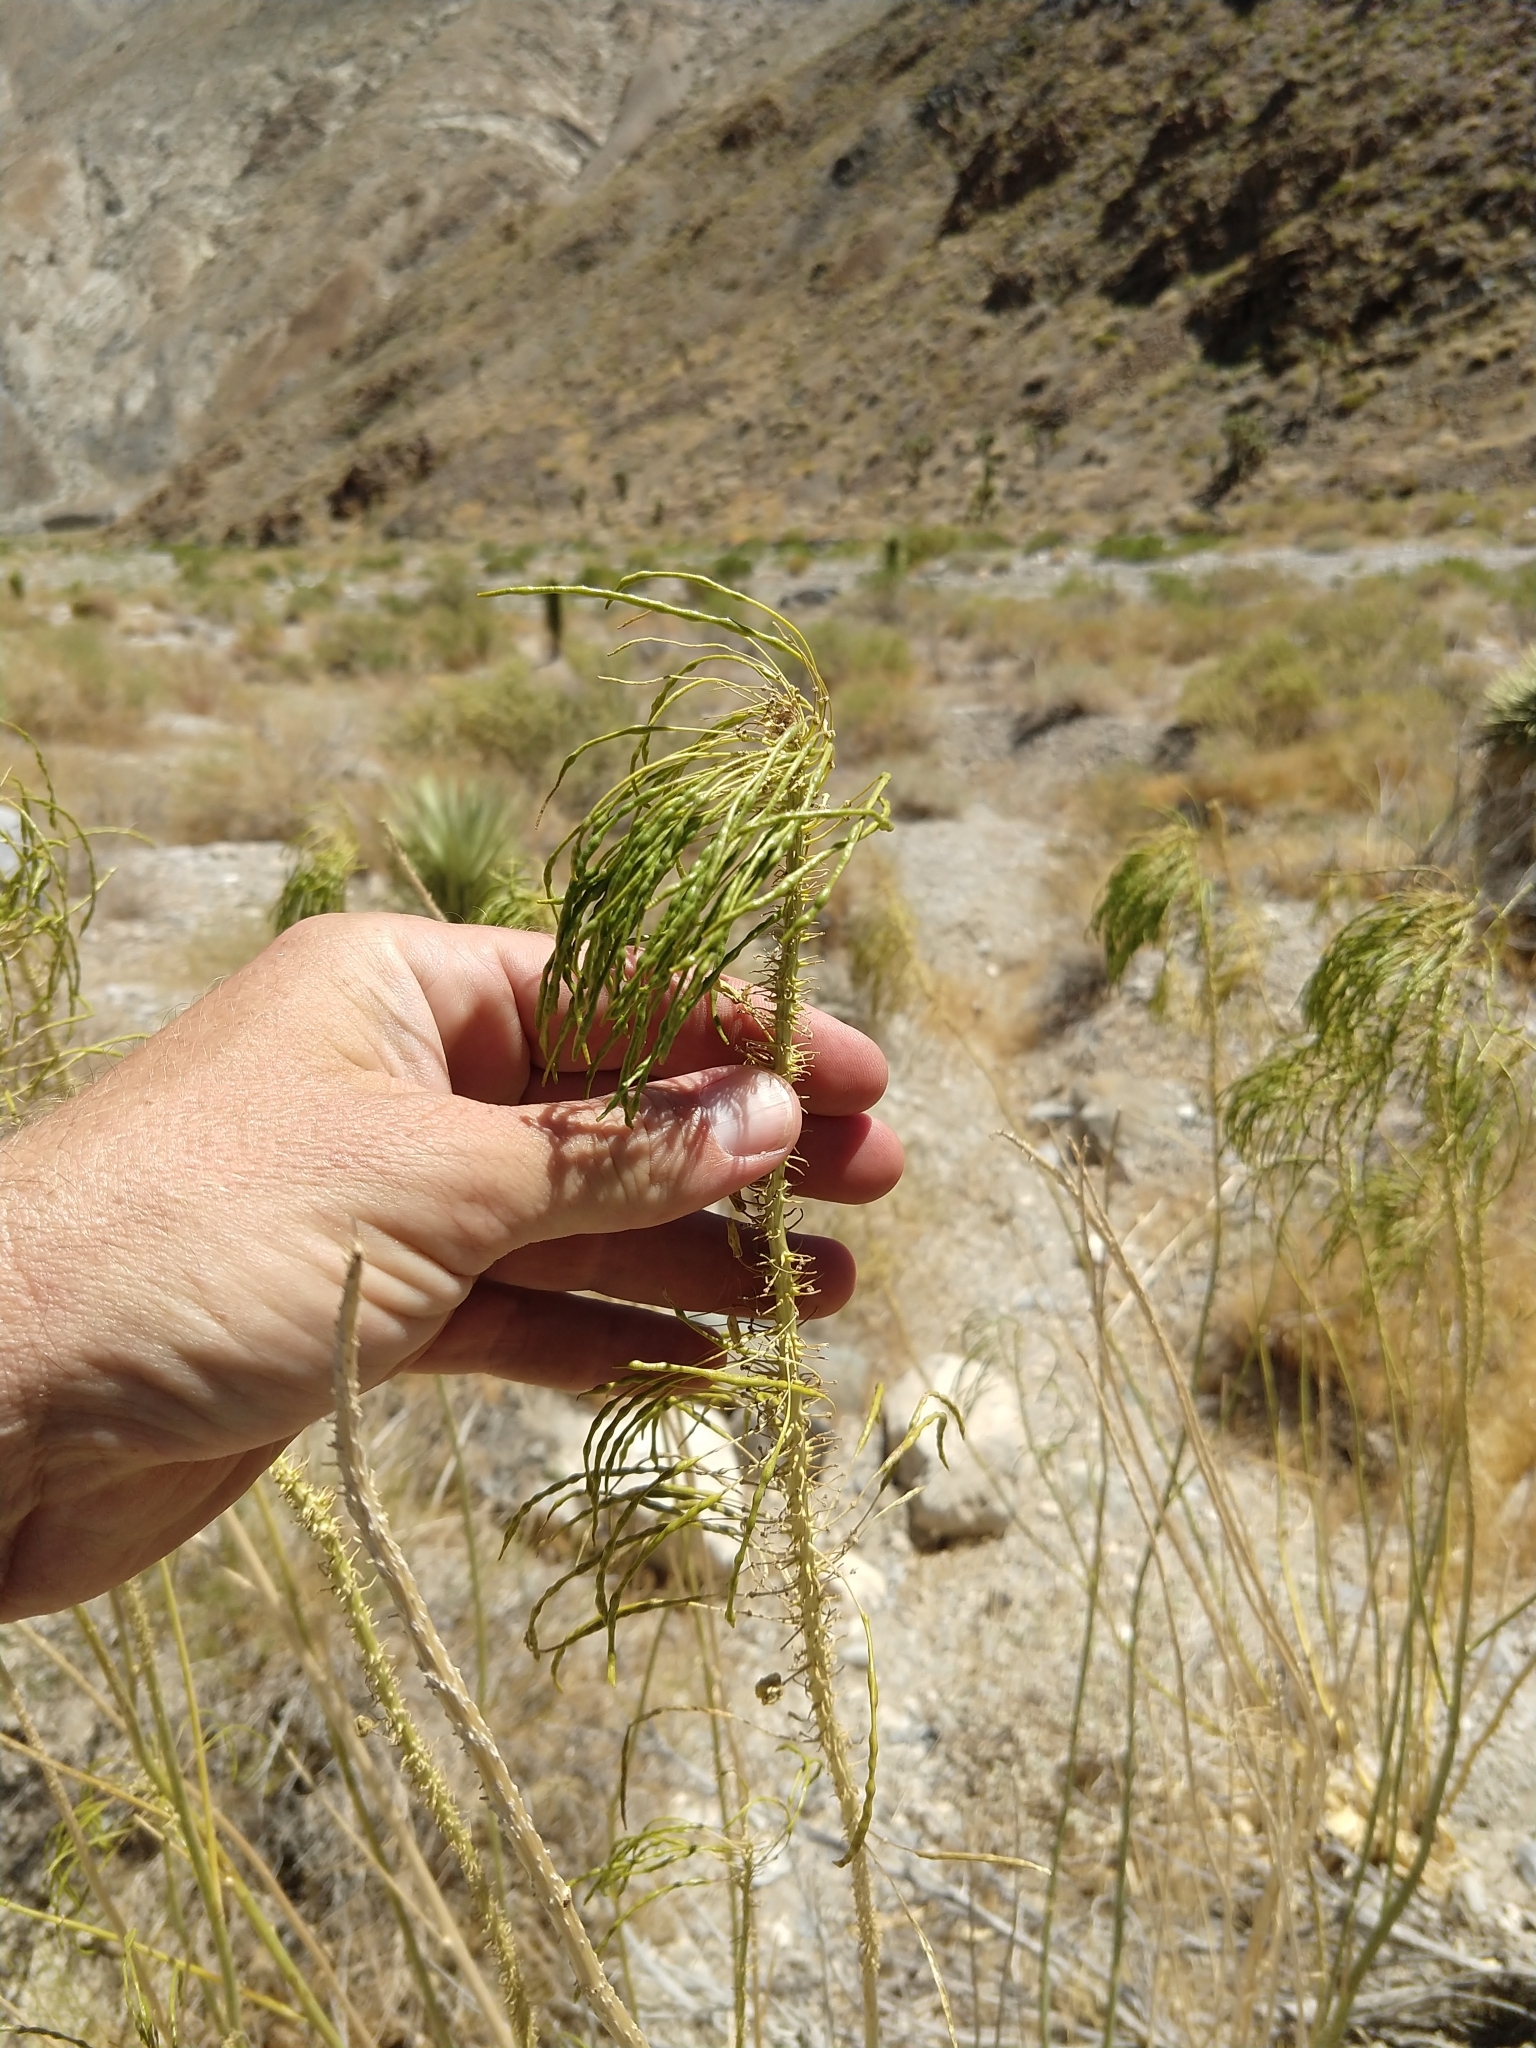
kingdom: Plantae
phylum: Tracheophyta
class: Magnoliopsida
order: Brassicales
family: Brassicaceae
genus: Stanleya
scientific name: Stanleya elata
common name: Panamint prince's plume
